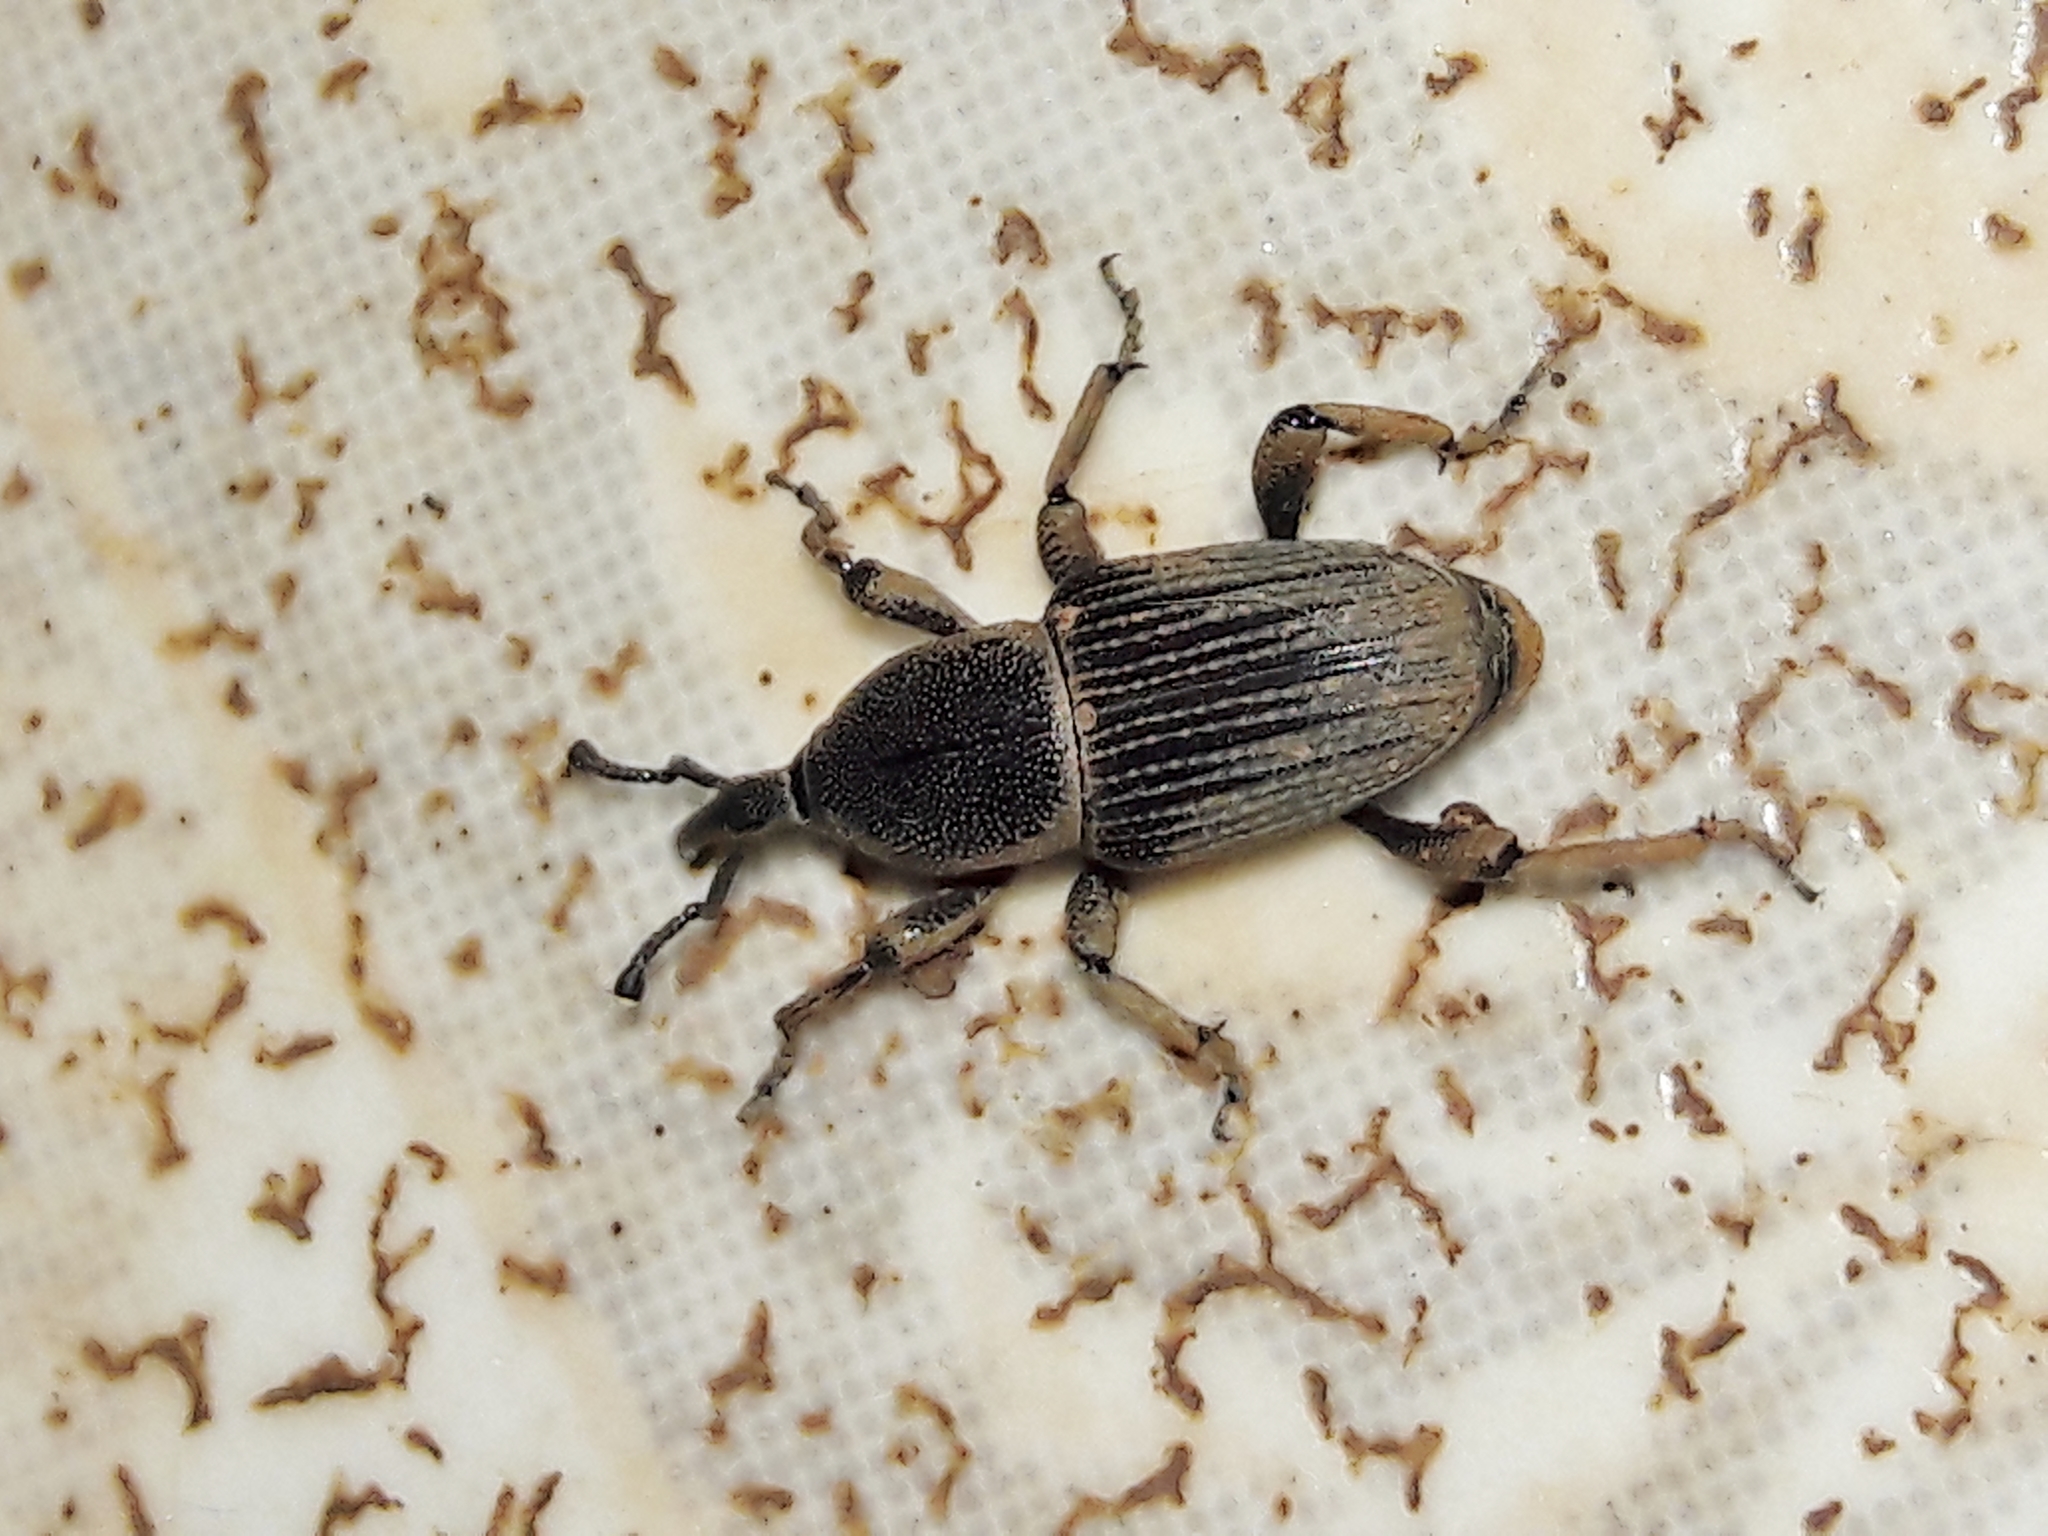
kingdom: Animalia
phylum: Arthropoda
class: Insecta
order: Coleoptera
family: Dryophthoridae
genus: Cosmopolites
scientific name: Cosmopolites sordidus
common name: Palm weevil
